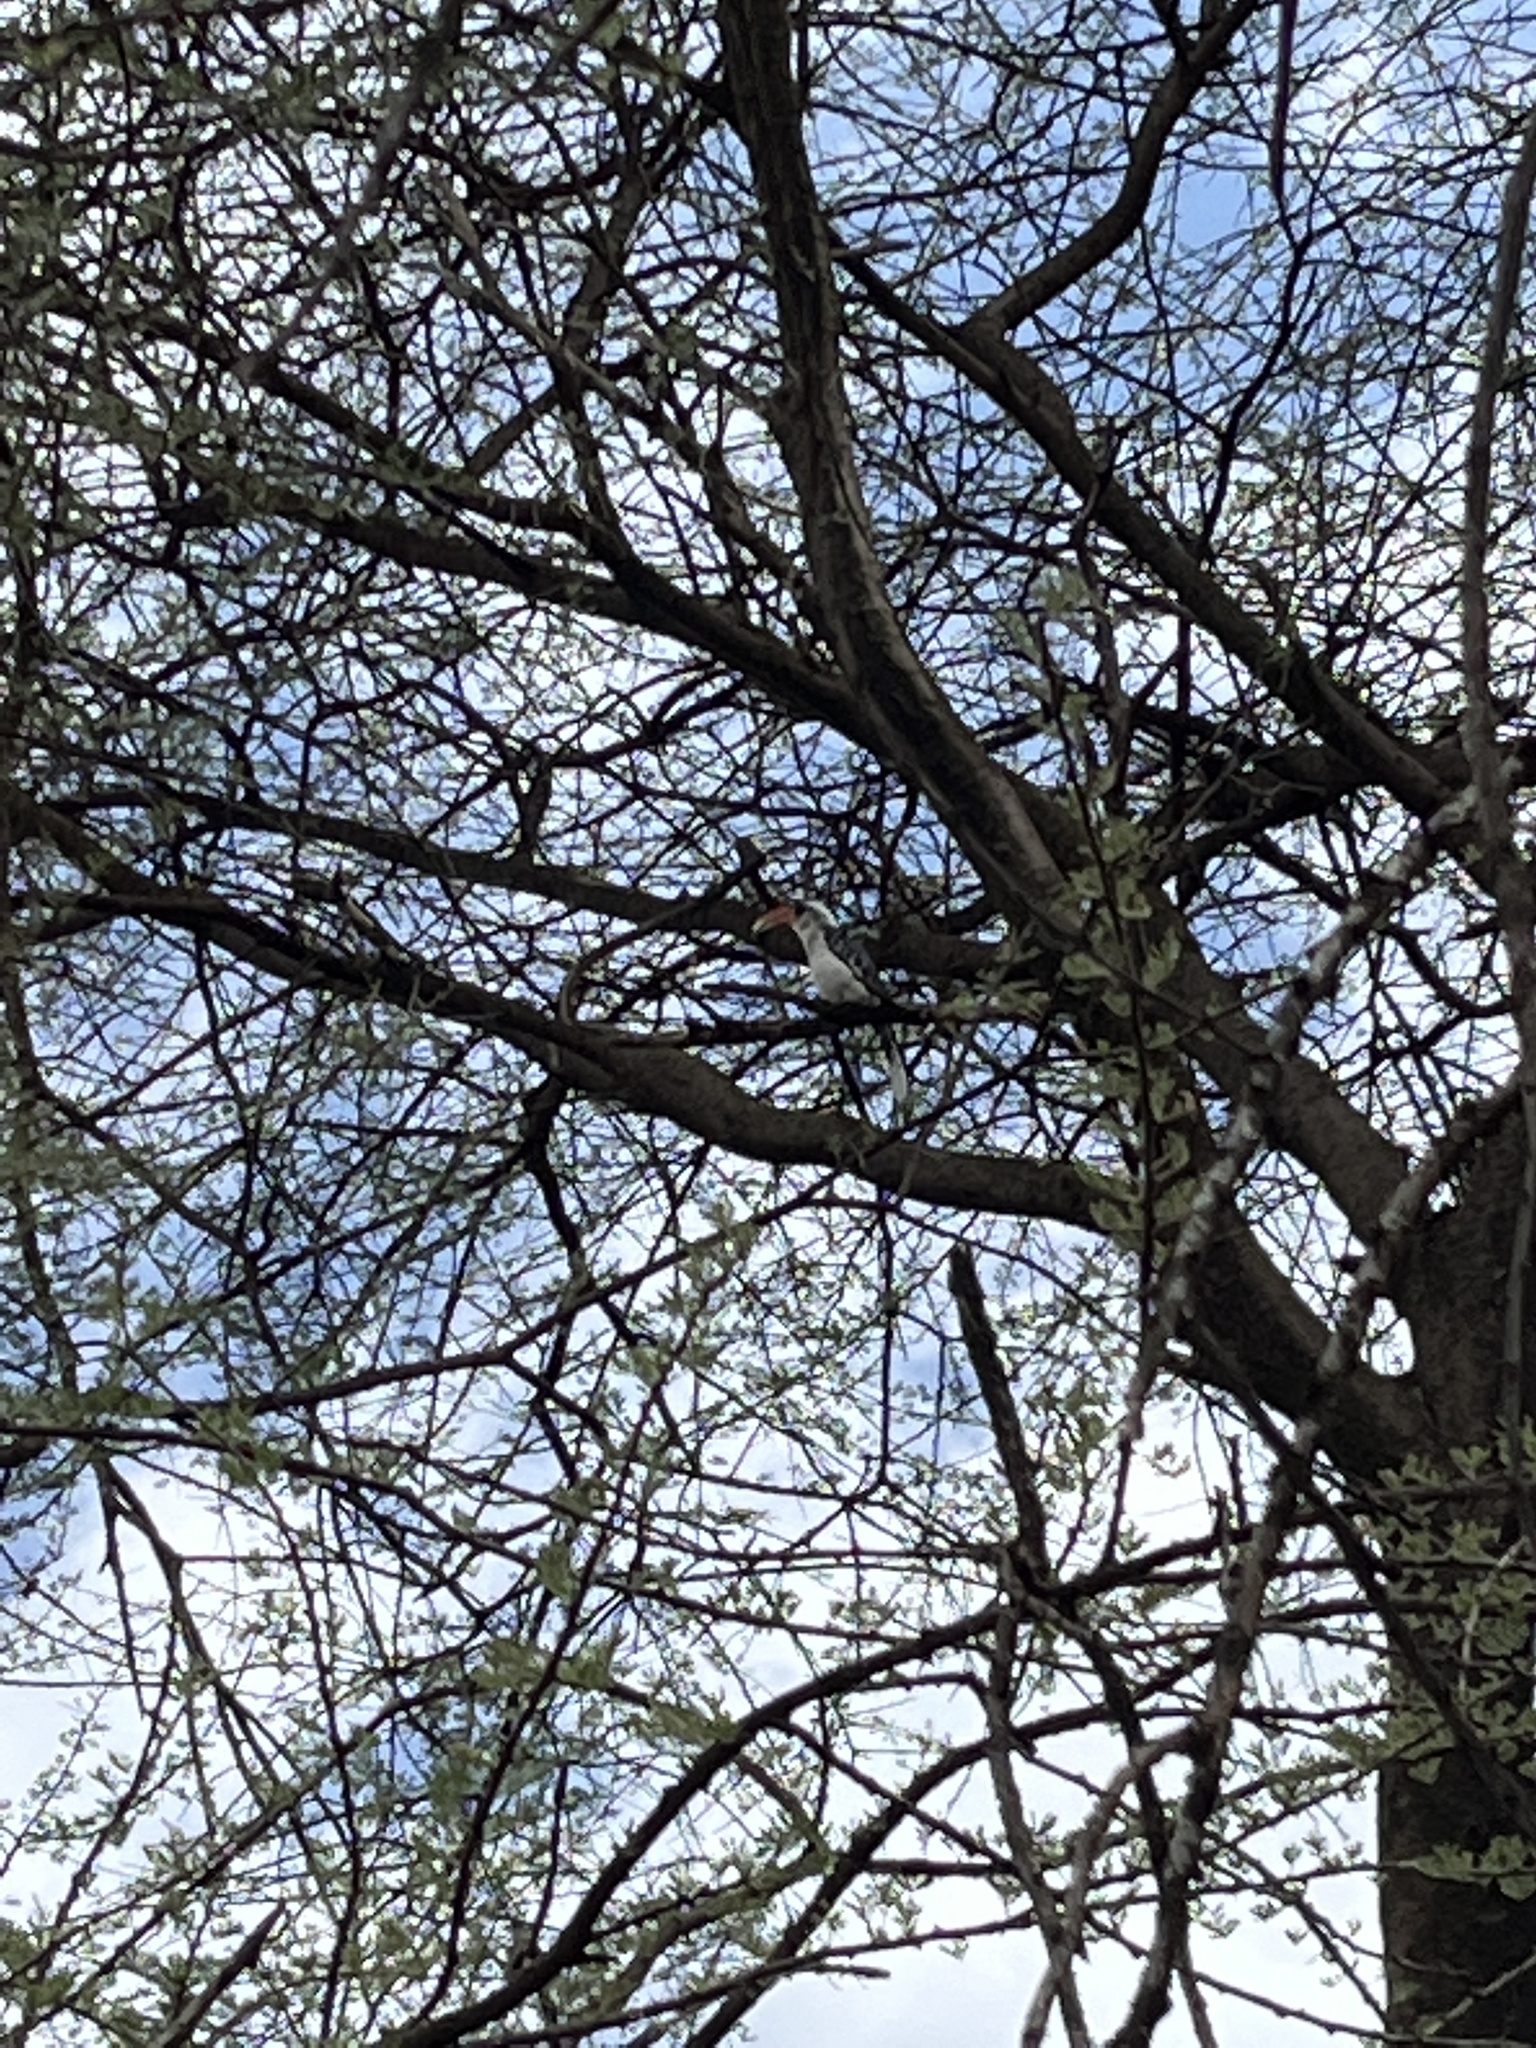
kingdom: Animalia
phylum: Chordata
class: Aves
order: Bucerotiformes
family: Bucerotidae
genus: Tockus
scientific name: Tockus jacksoni
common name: Jackson's hornbill
